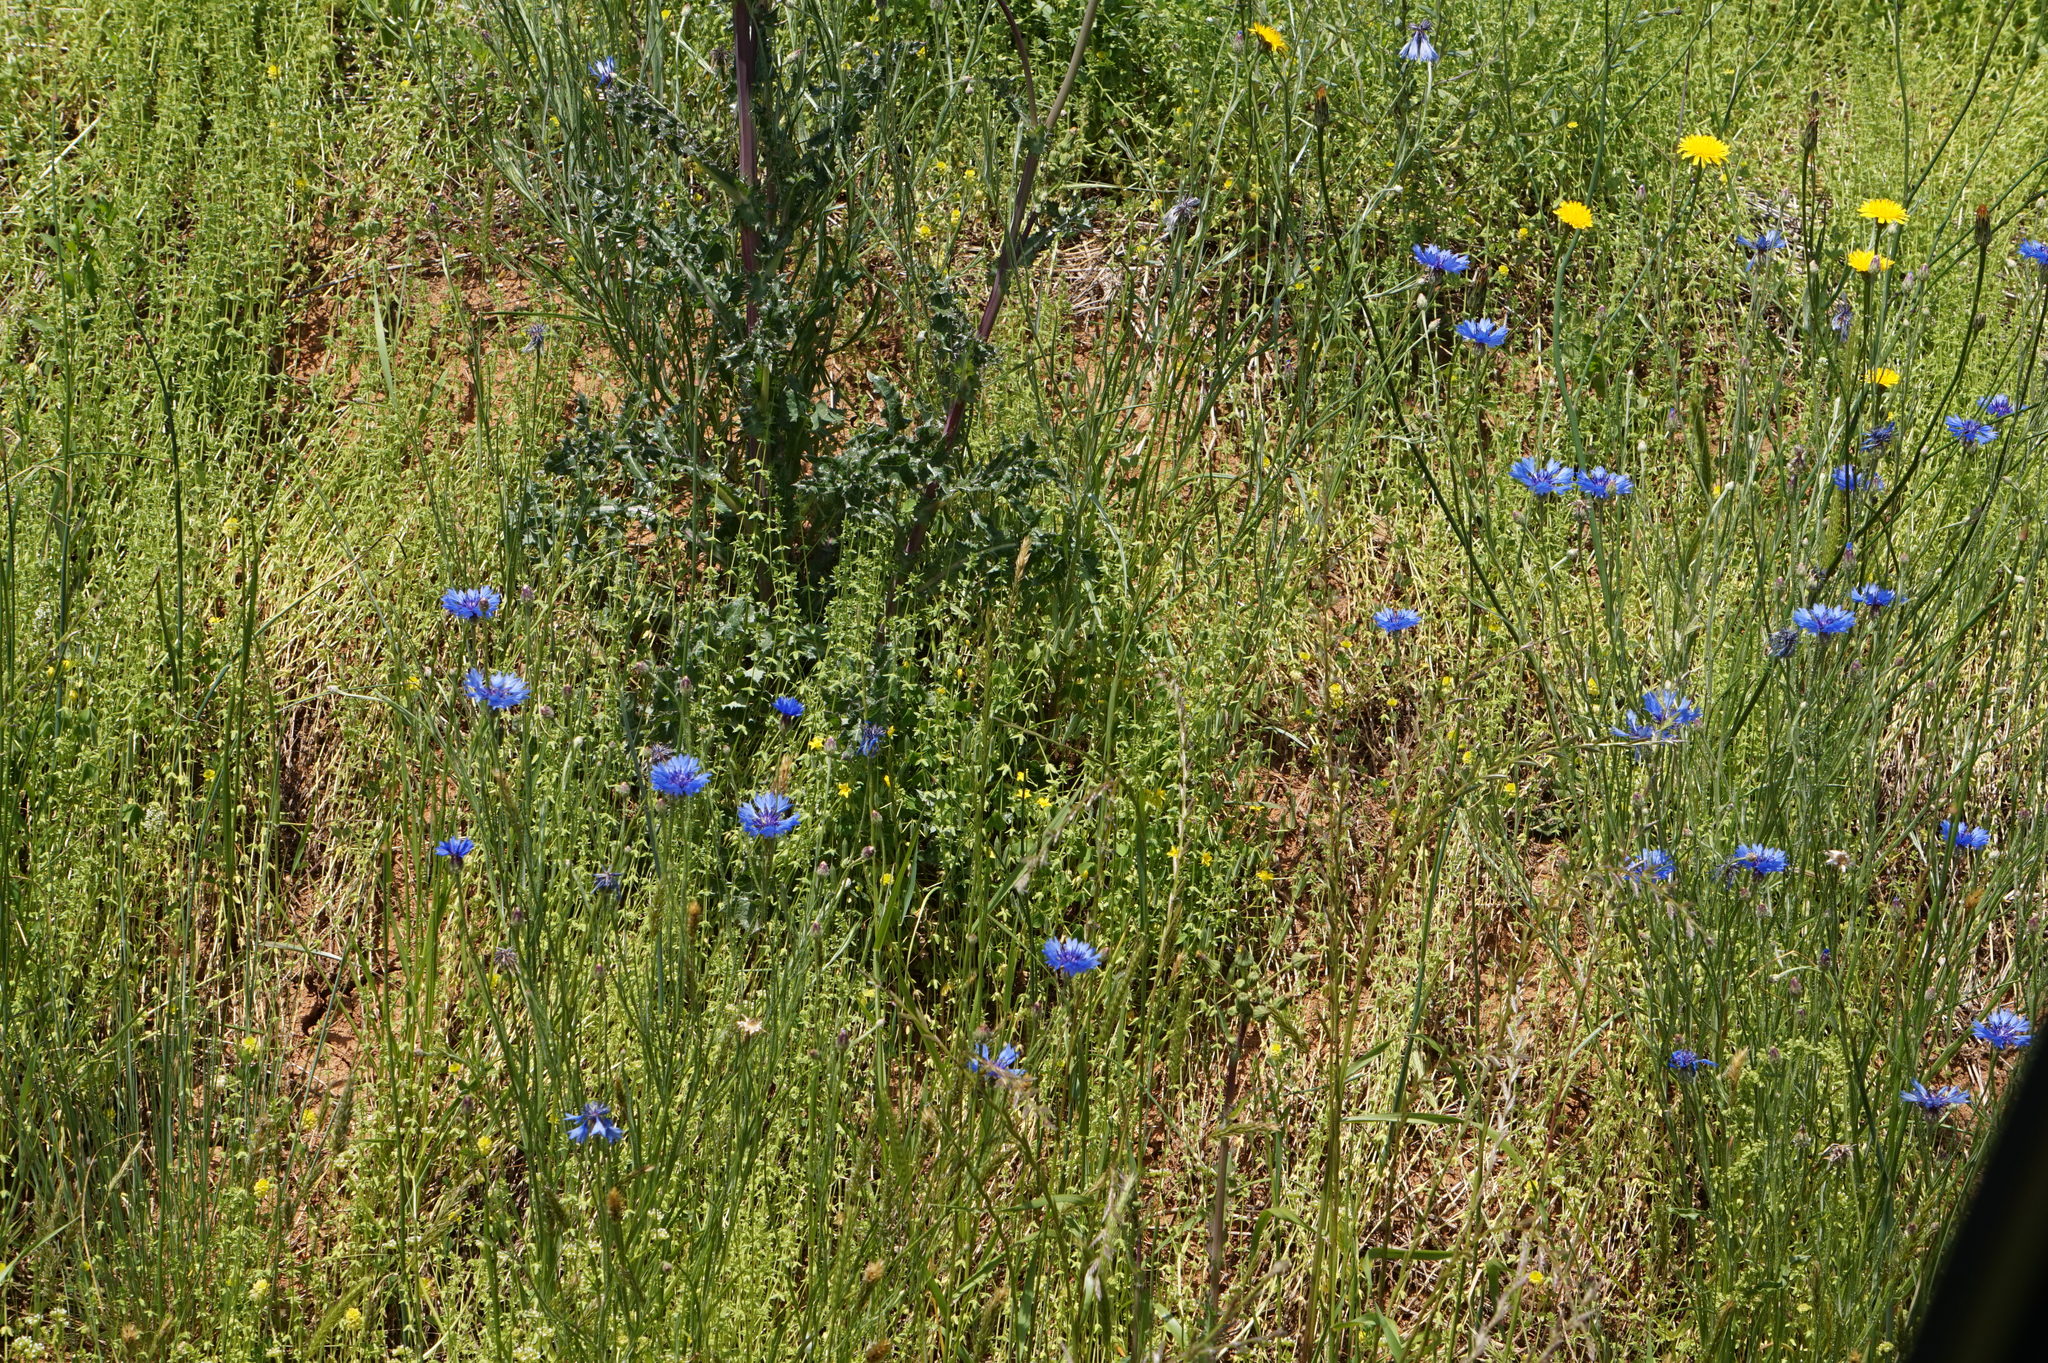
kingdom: Plantae
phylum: Tracheophyta
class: Magnoliopsida
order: Asterales
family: Asteraceae
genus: Centaurea
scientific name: Centaurea cyanus
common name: Cornflower
